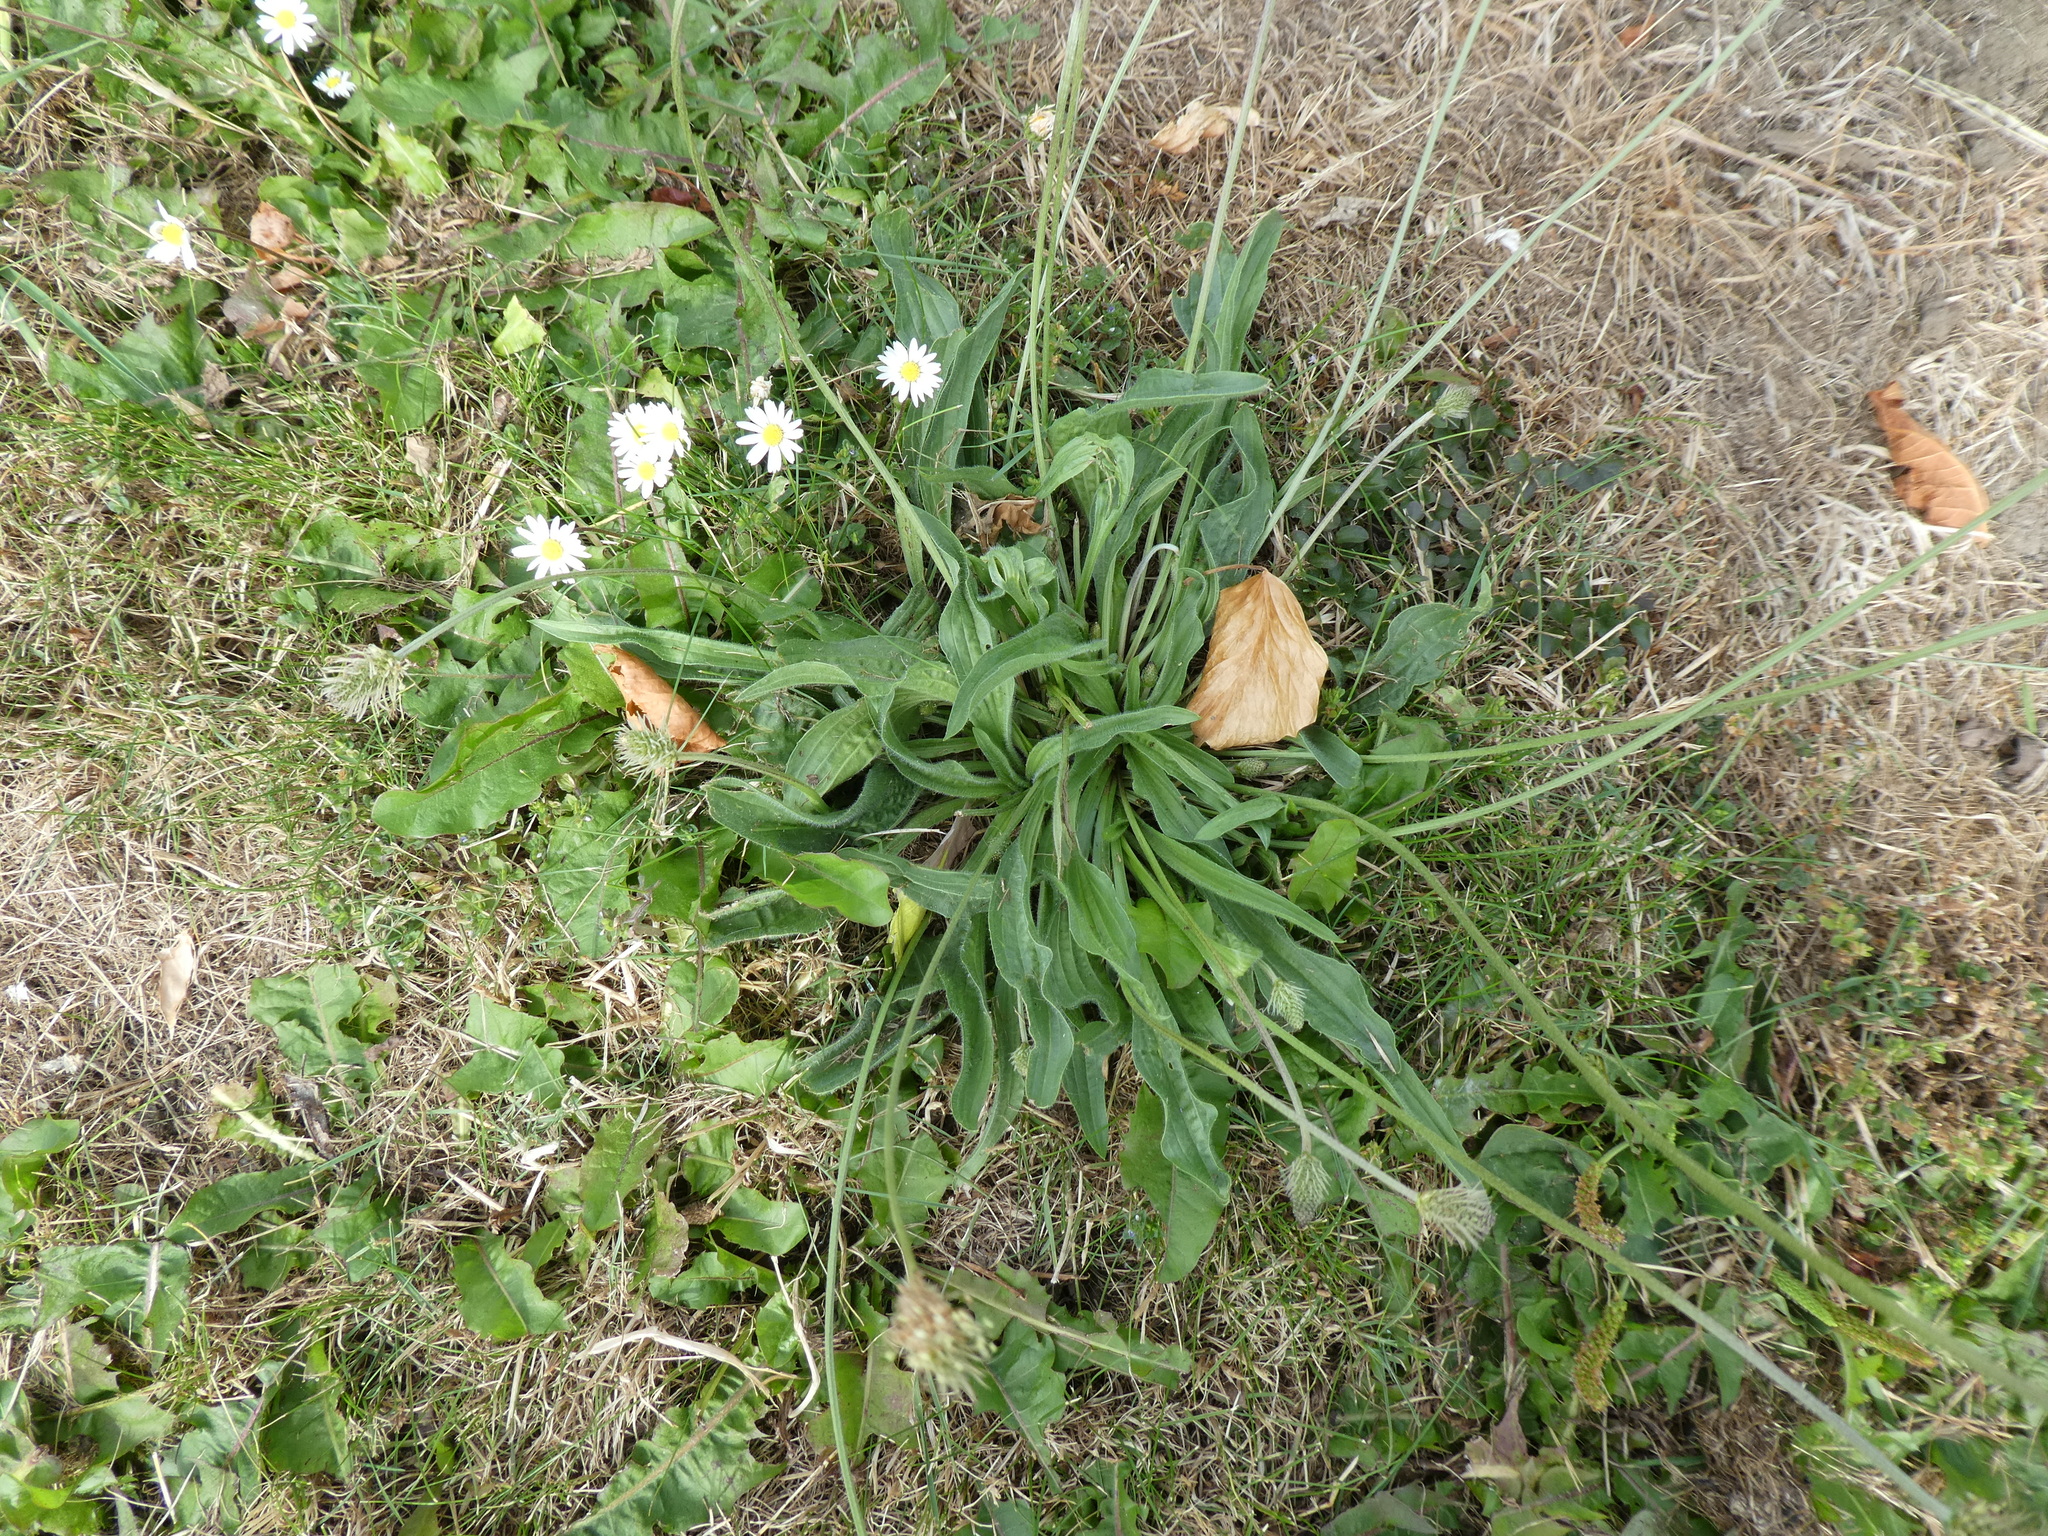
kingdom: Plantae
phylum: Tracheophyta
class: Magnoliopsida
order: Lamiales
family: Plantaginaceae
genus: Plantago
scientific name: Plantago lanceolata
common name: Ribwort plantain
